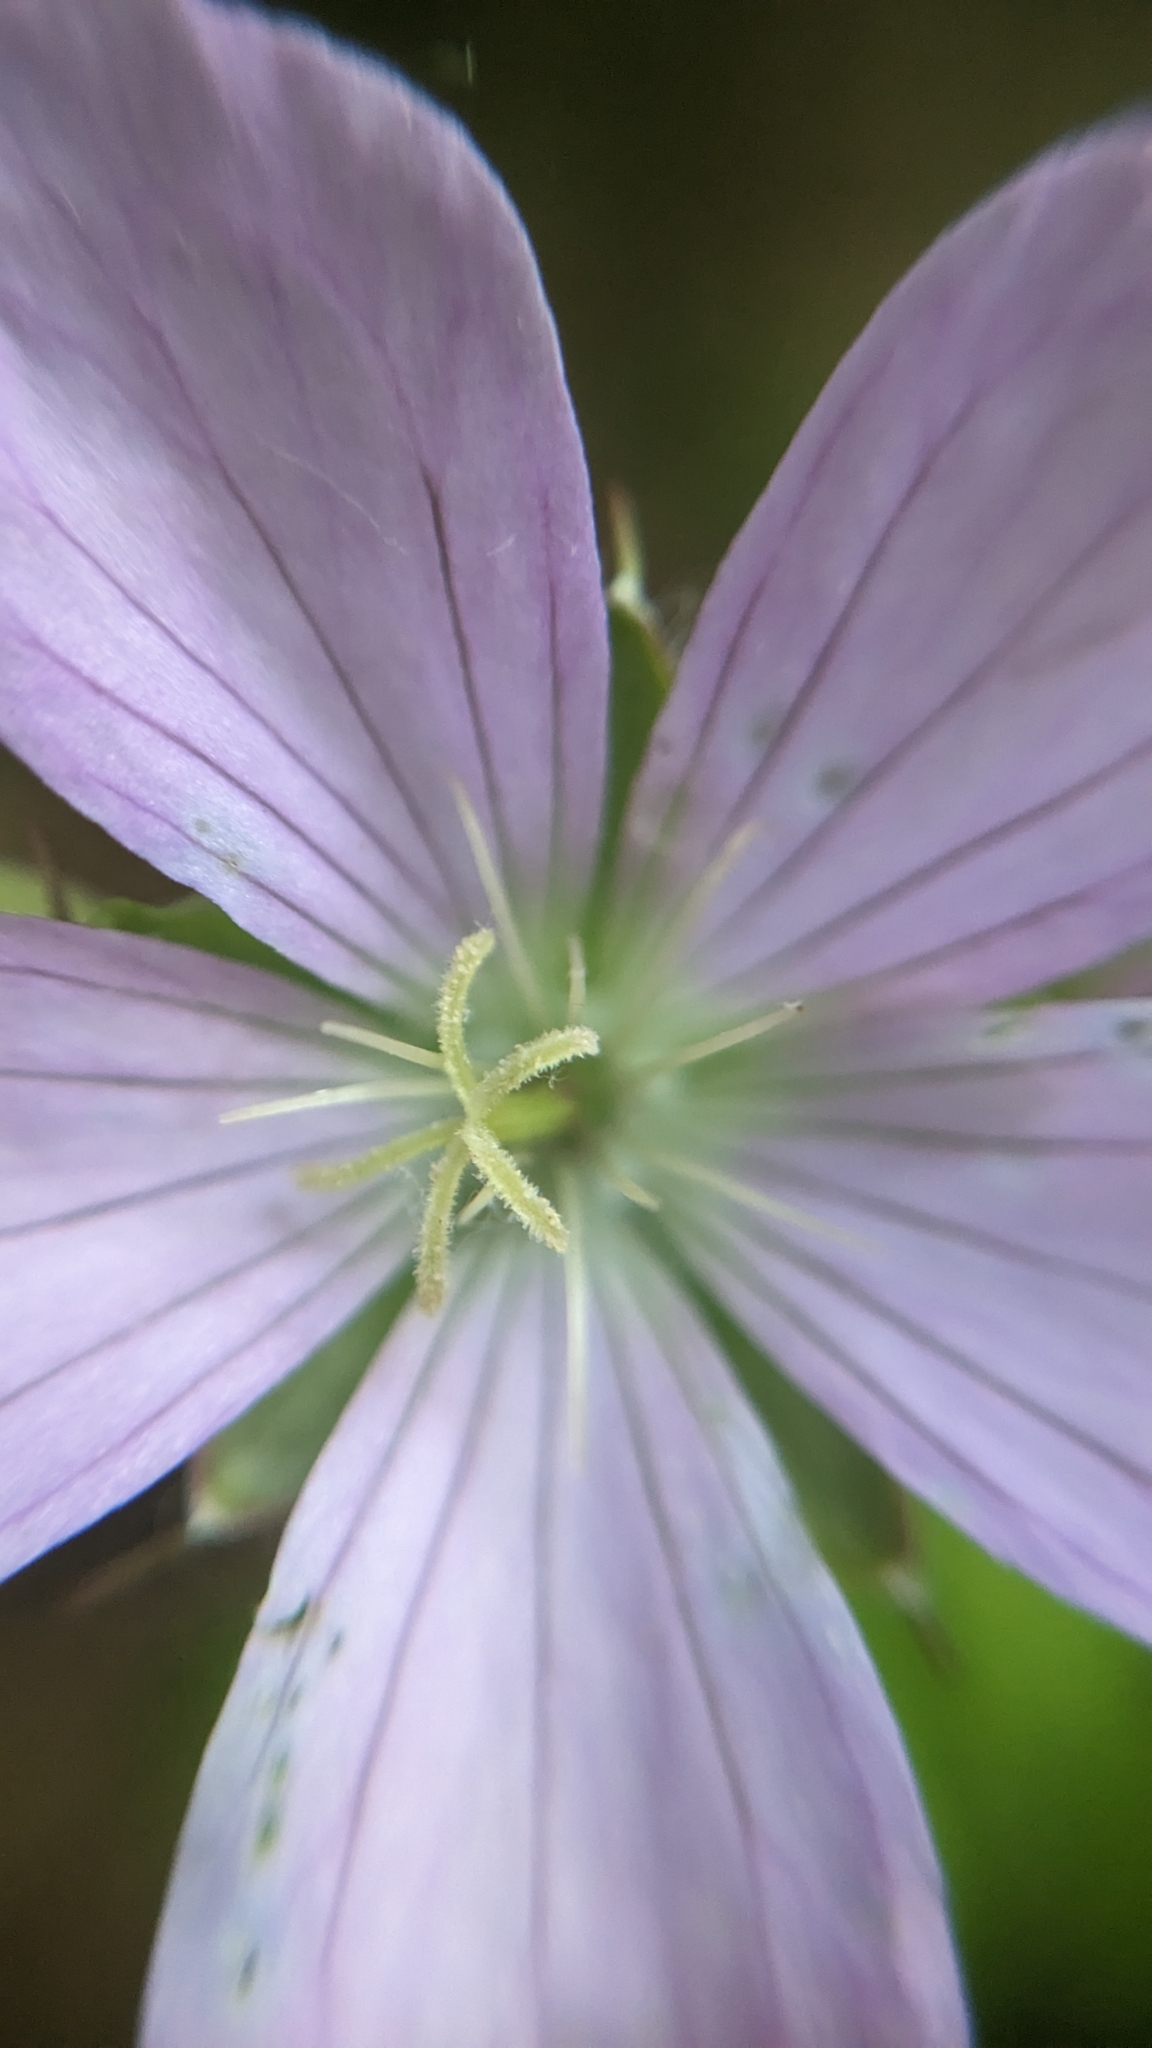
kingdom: Plantae
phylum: Tracheophyta
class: Magnoliopsida
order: Geraniales
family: Geraniaceae
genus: Geranium
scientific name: Geranium maculatum
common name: Spotted geranium
